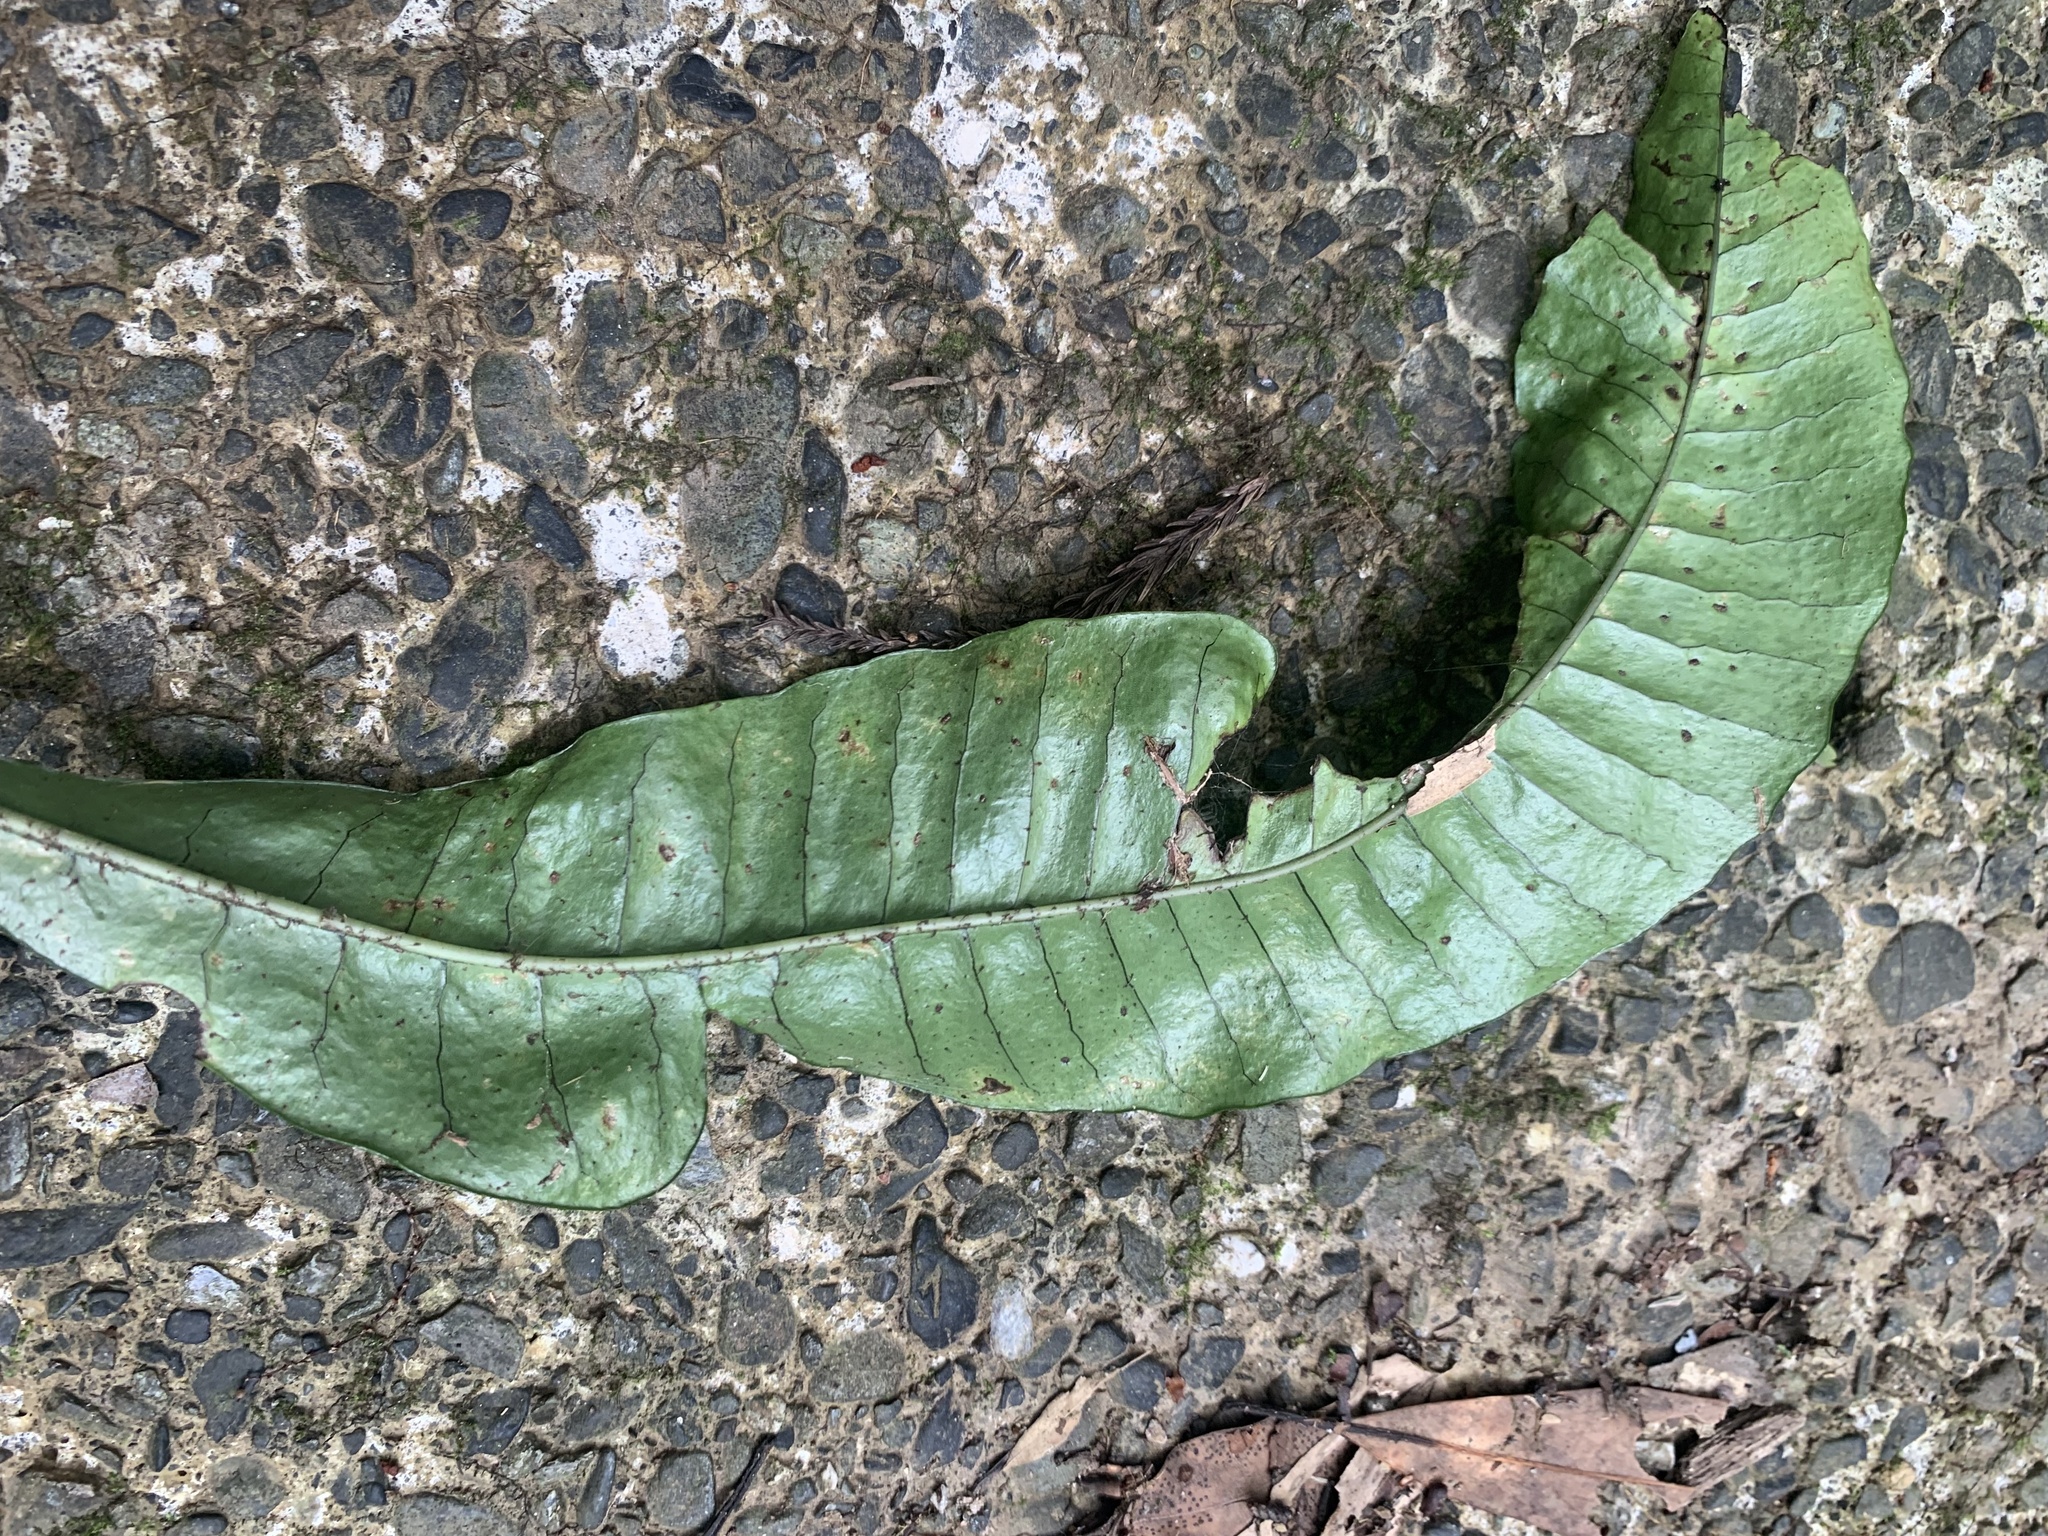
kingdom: Plantae
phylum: Tracheophyta
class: Polypodiopsida
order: Polypodiales
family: Polypodiaceae
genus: Lepisorus
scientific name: Lepisorus ensatus
